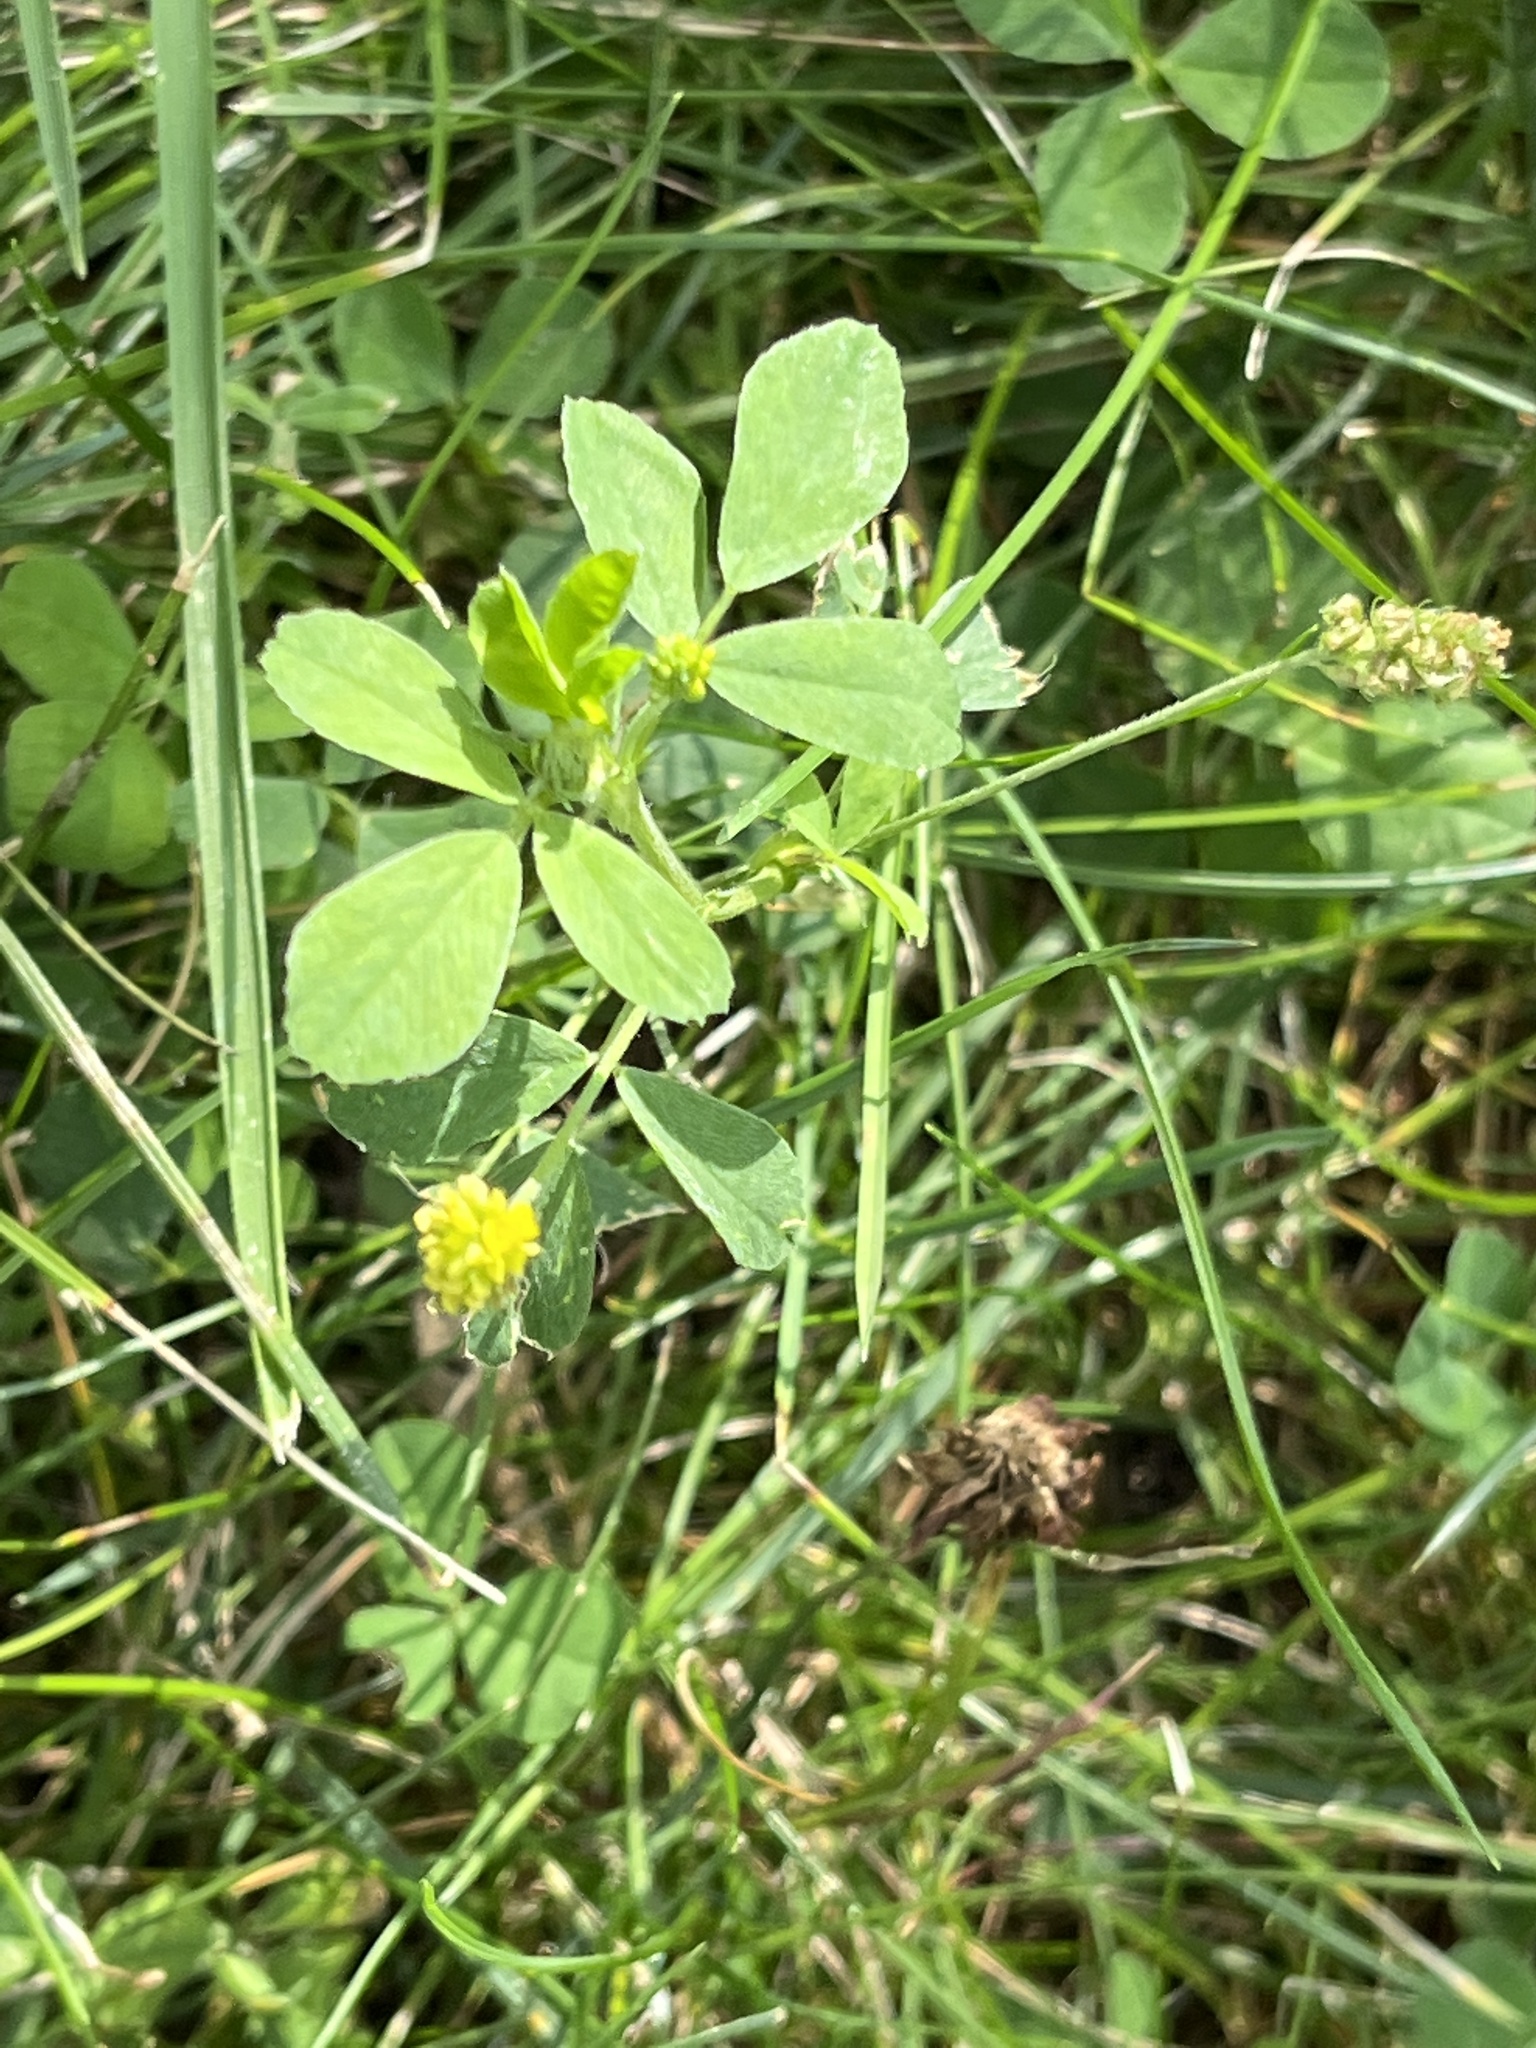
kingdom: Plantae
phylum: Tracheophyta
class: Magnoliopsida
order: Fabales
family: Fabaceae
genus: Medicago
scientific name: Medicago lupulina
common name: Black medick
